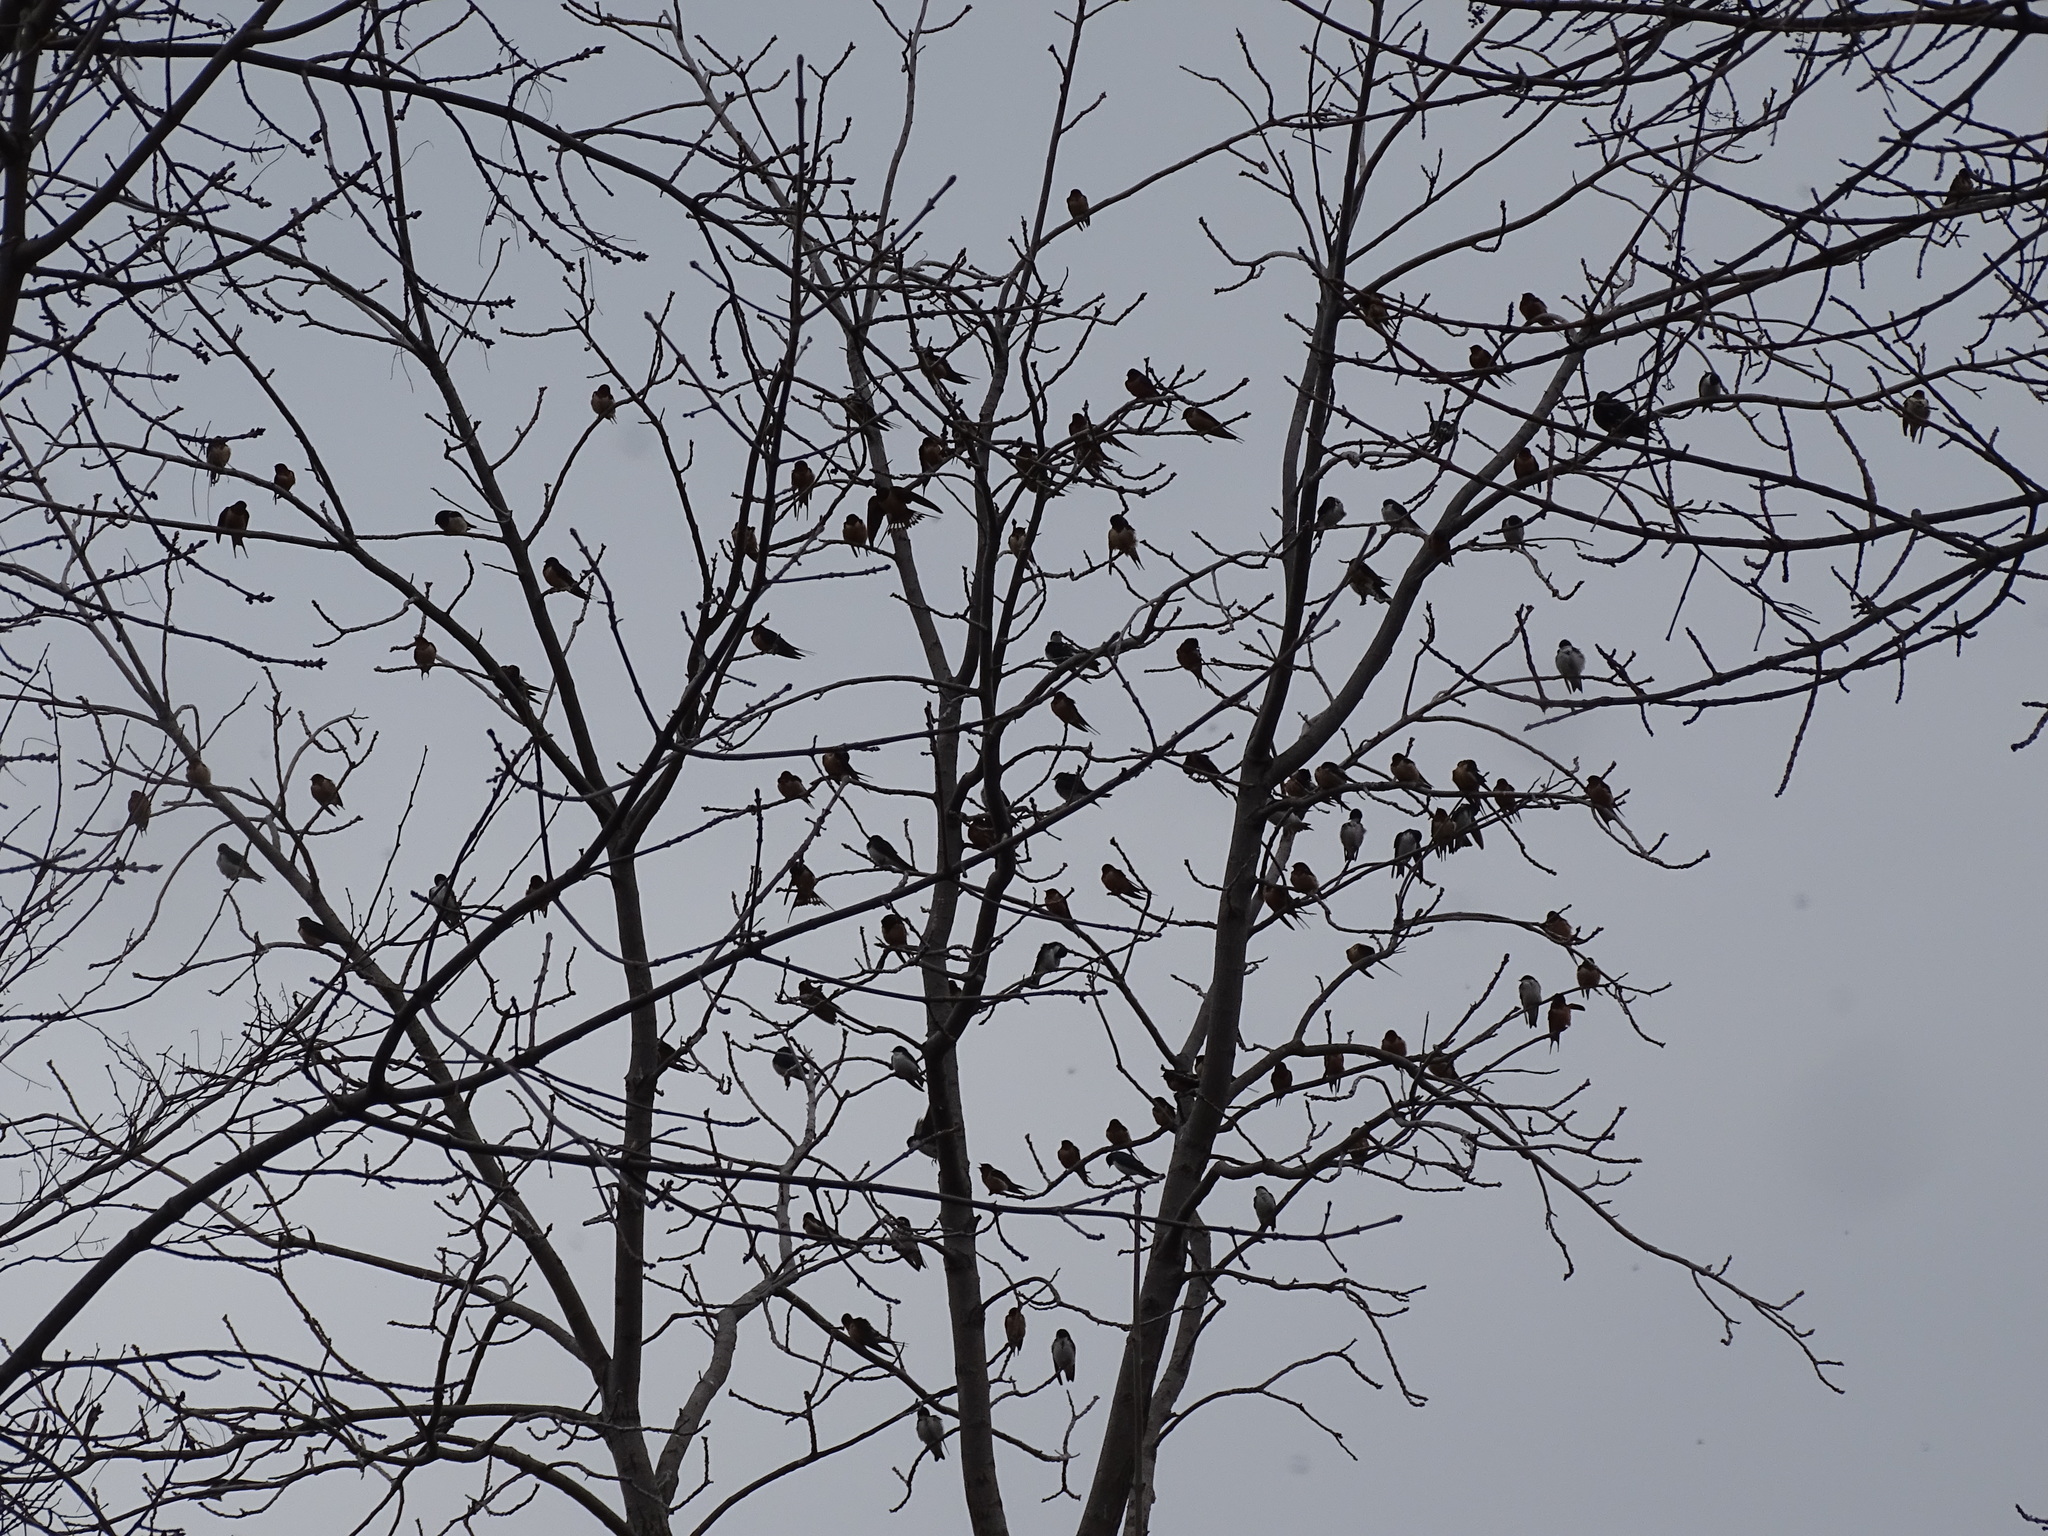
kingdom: Animalia
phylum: Chordata
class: Aves
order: Passeriformes
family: Hirundinidae
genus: Hirundo
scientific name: Hirundo rustica
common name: Barn swallow
